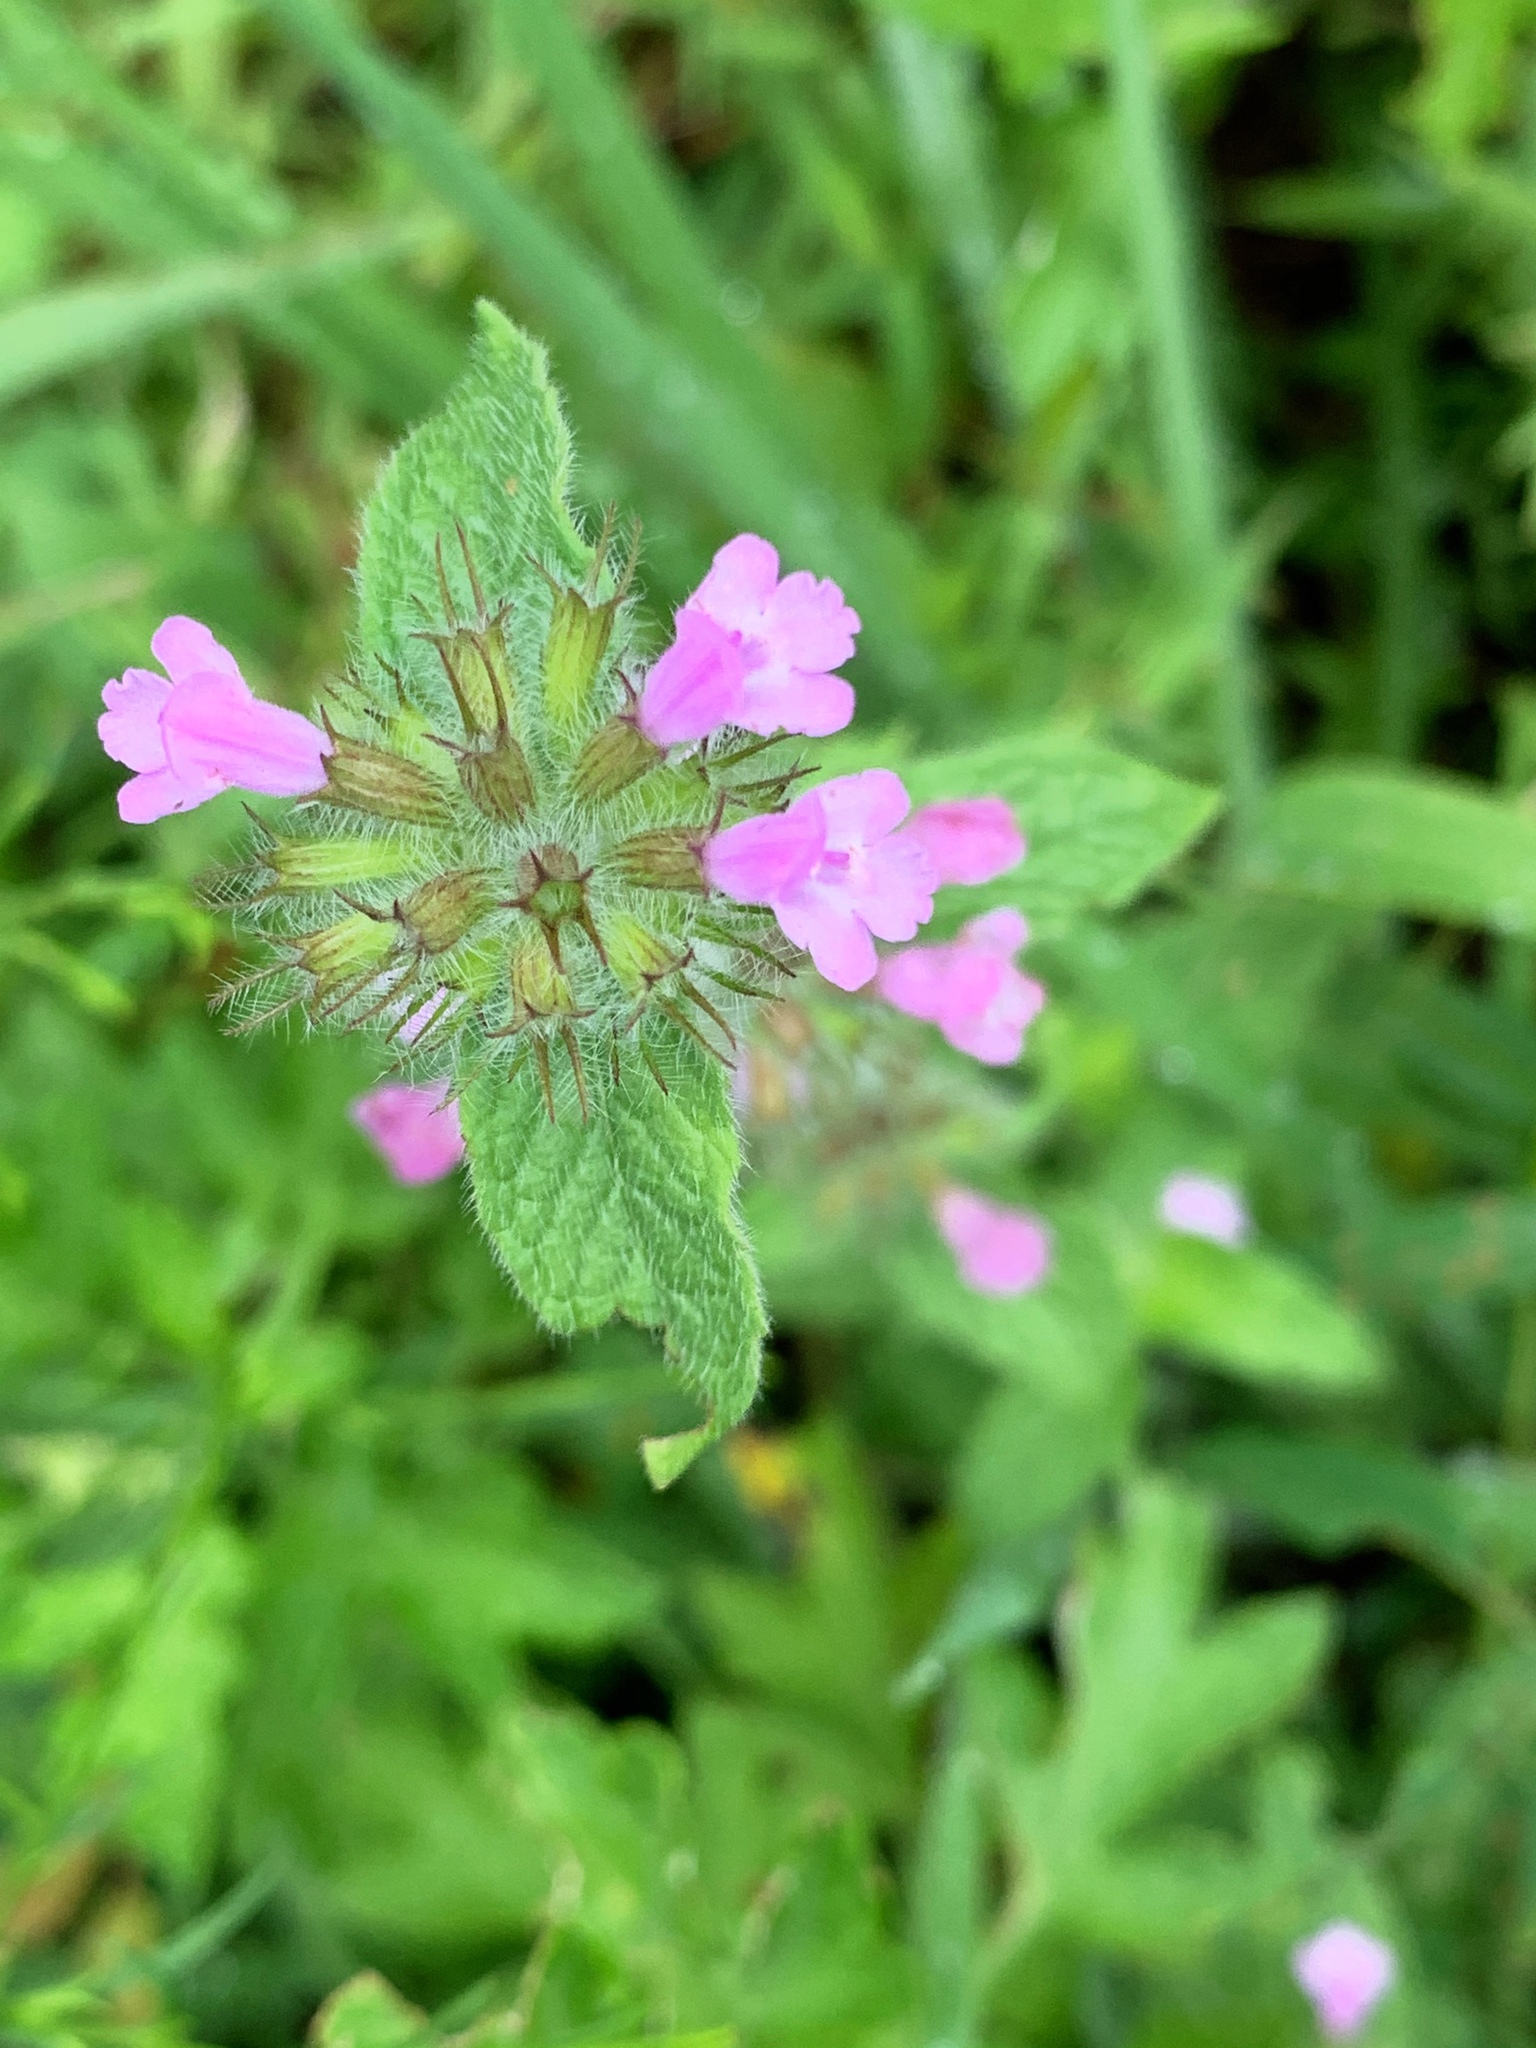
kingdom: Plantae
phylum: Tracheophyta
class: Magnoliopsida
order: Lamiales
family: Lamiaceae
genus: Clinopodium
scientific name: Clinopodium vulgare
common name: Wild basil
